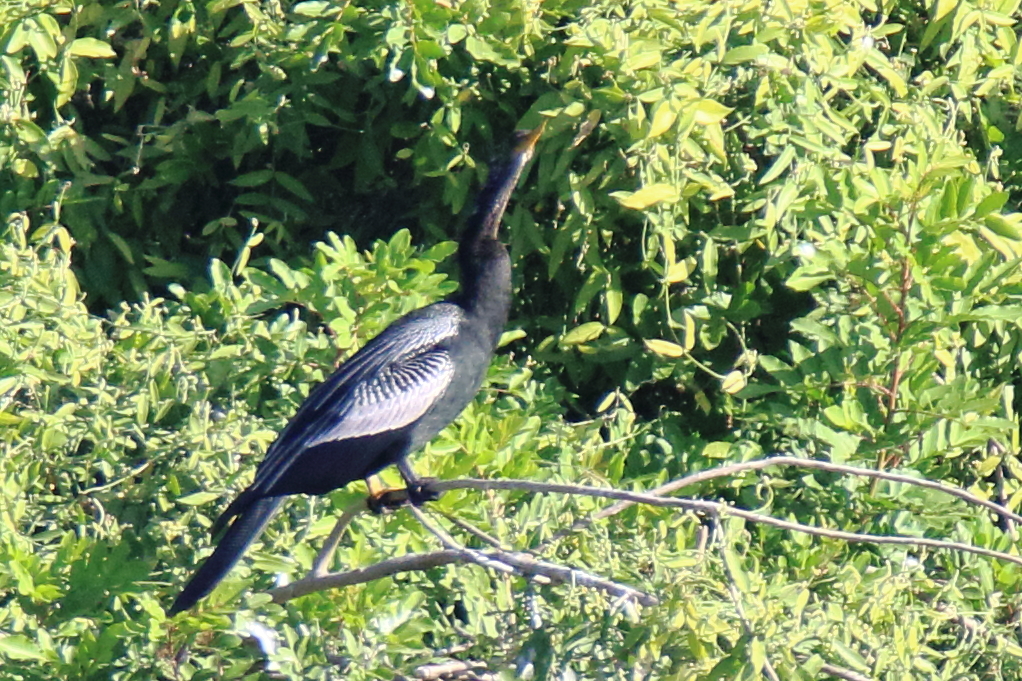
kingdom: Animalia
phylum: Chordata
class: Aves
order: Suliformes
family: Anhingidae
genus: Anhinga
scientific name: Anhinga anhinga
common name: Anhinga
